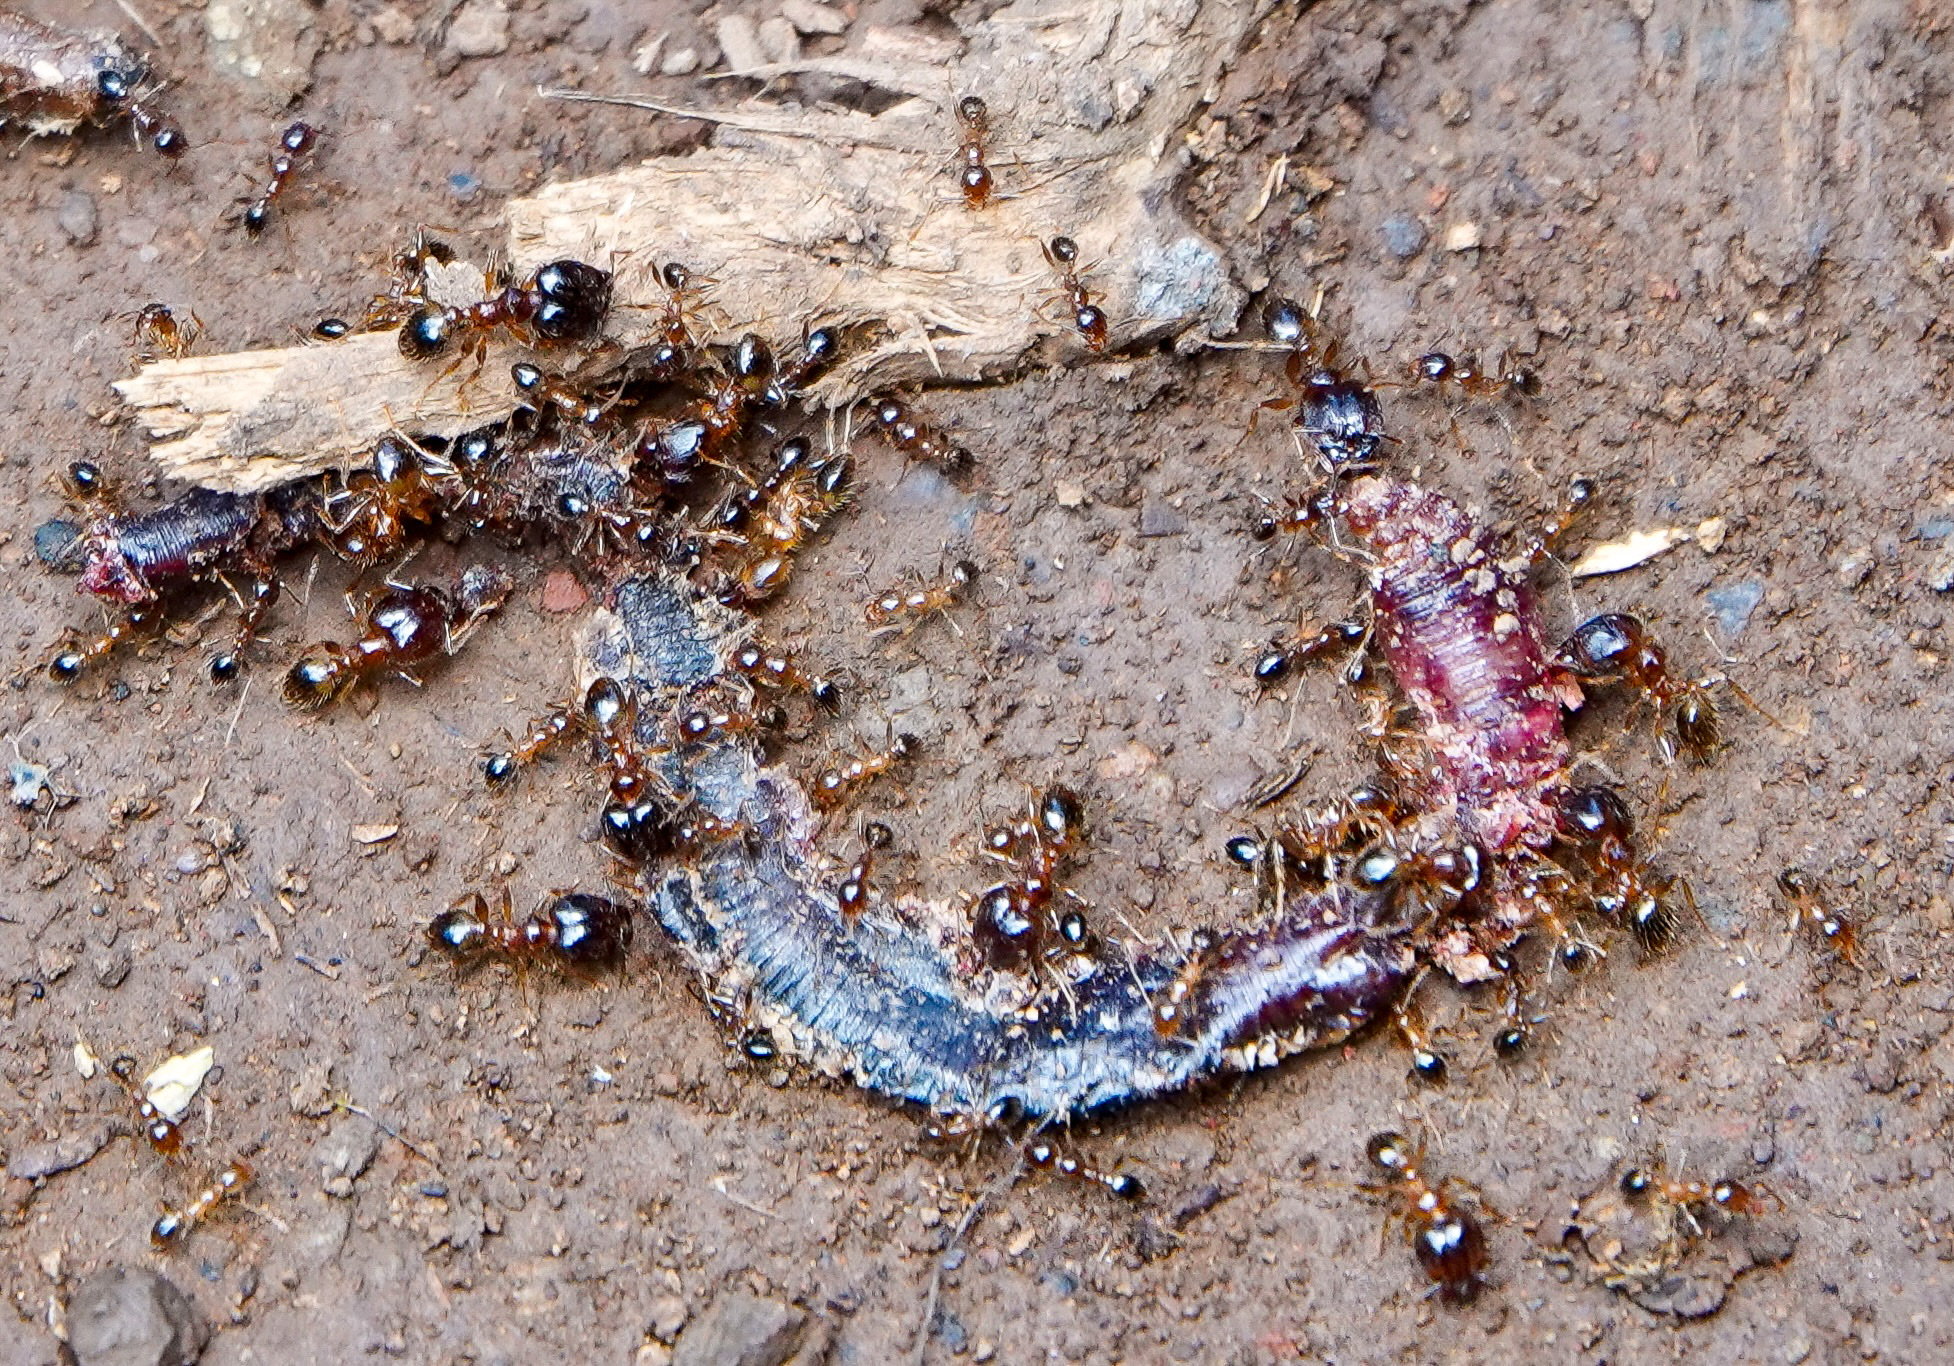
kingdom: Animalia
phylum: Arthropoda
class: Insecta
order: Hymenoptera
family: Formicidae
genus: Pheidole
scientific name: Pheidole megacephala
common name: Bigheaded ant
